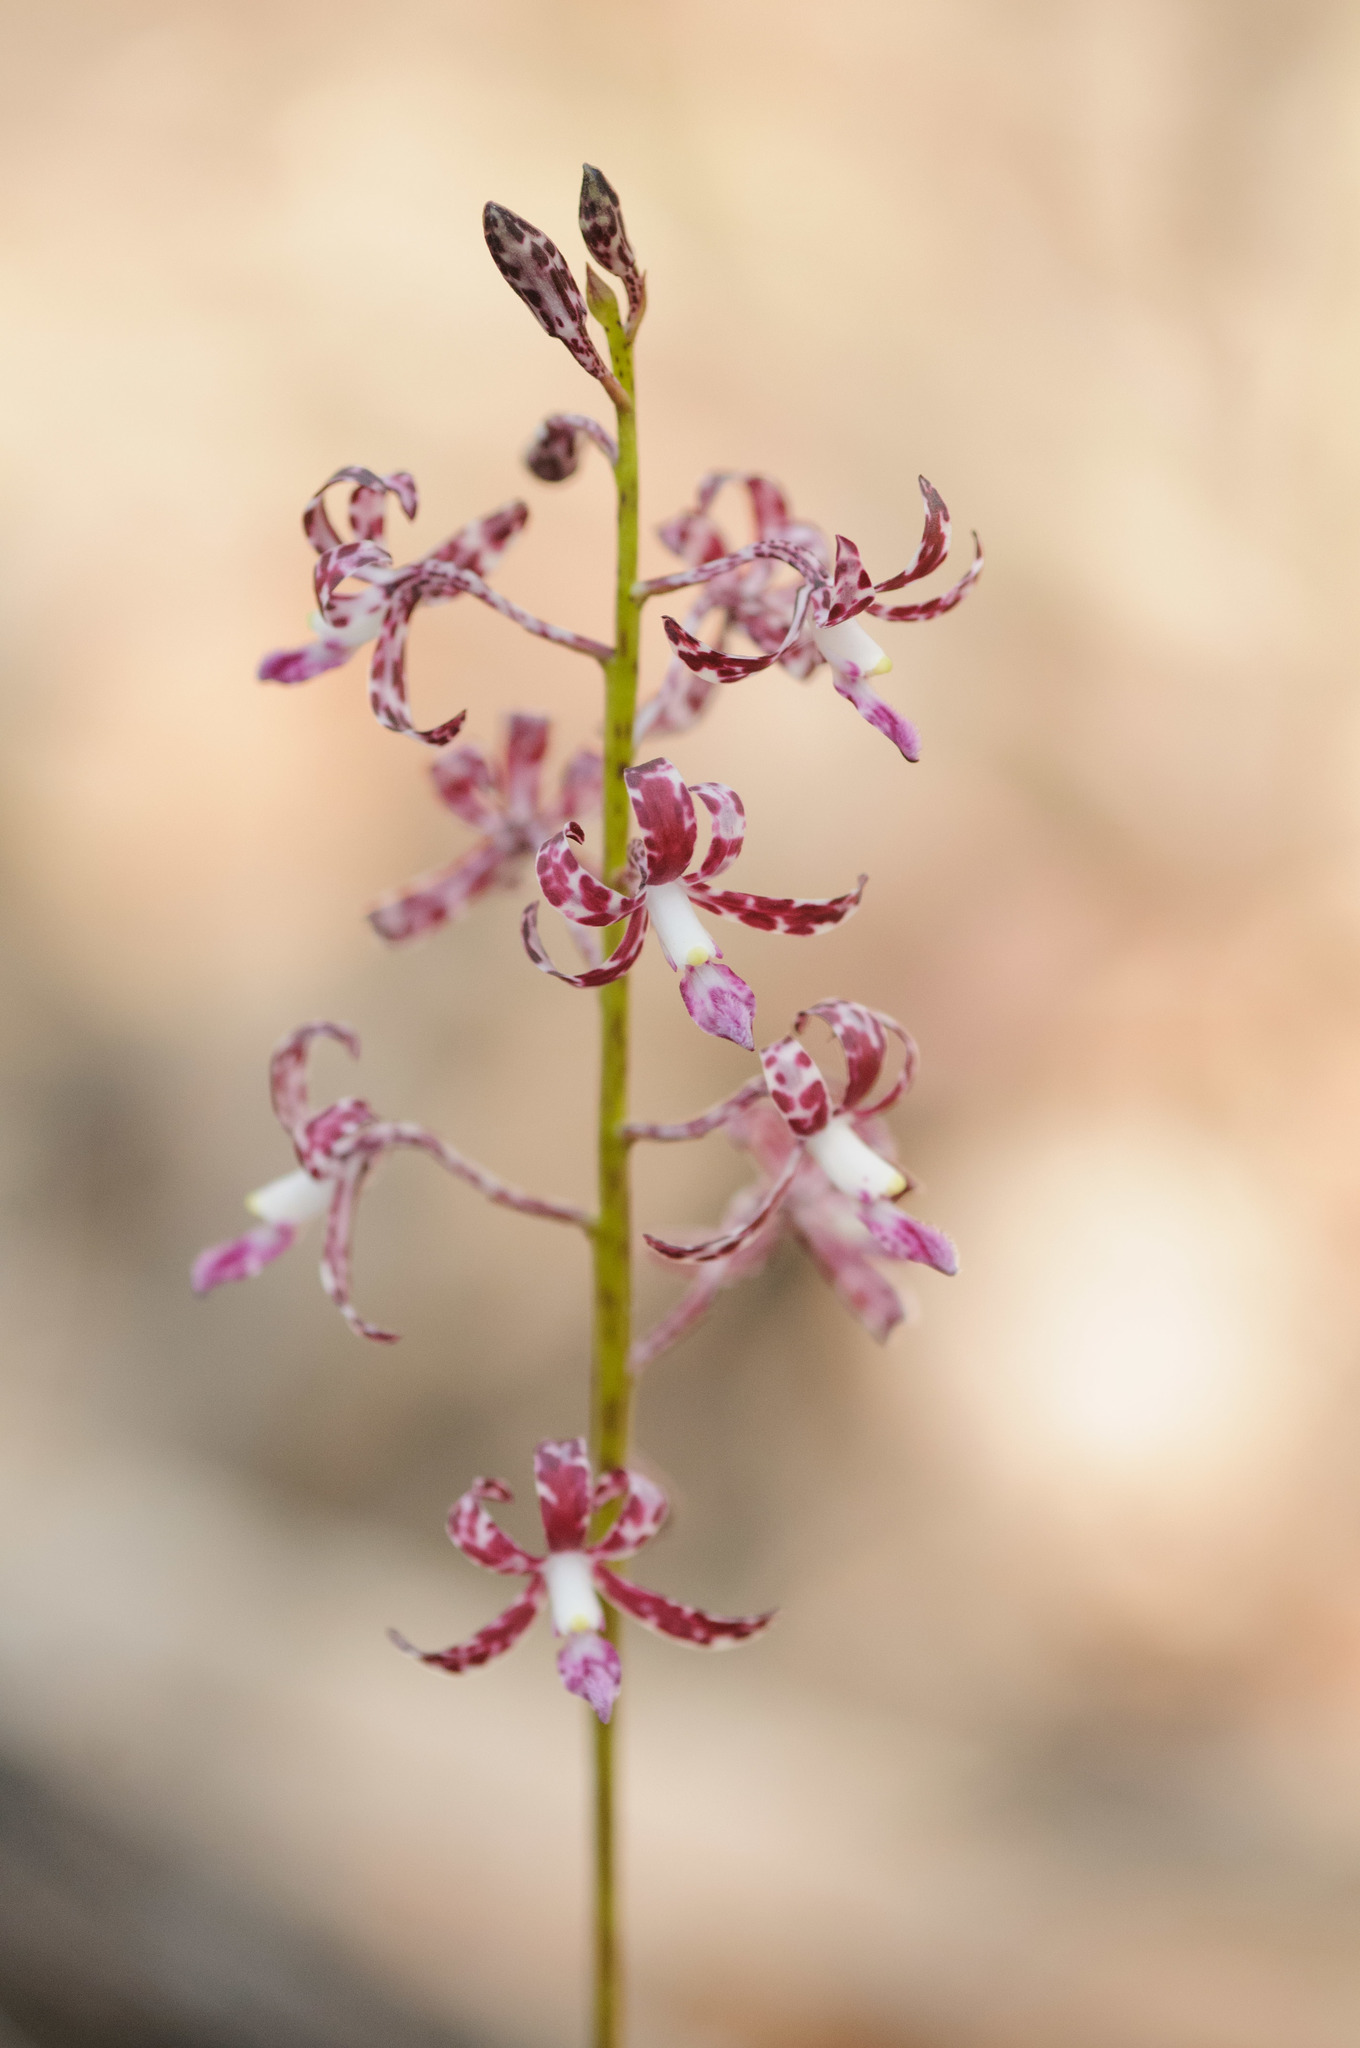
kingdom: Plantae
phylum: Tracheophyta
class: Liliopsida
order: Asparagales
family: Orchidaceae
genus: Dipodium
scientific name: Dipodium variegatum
